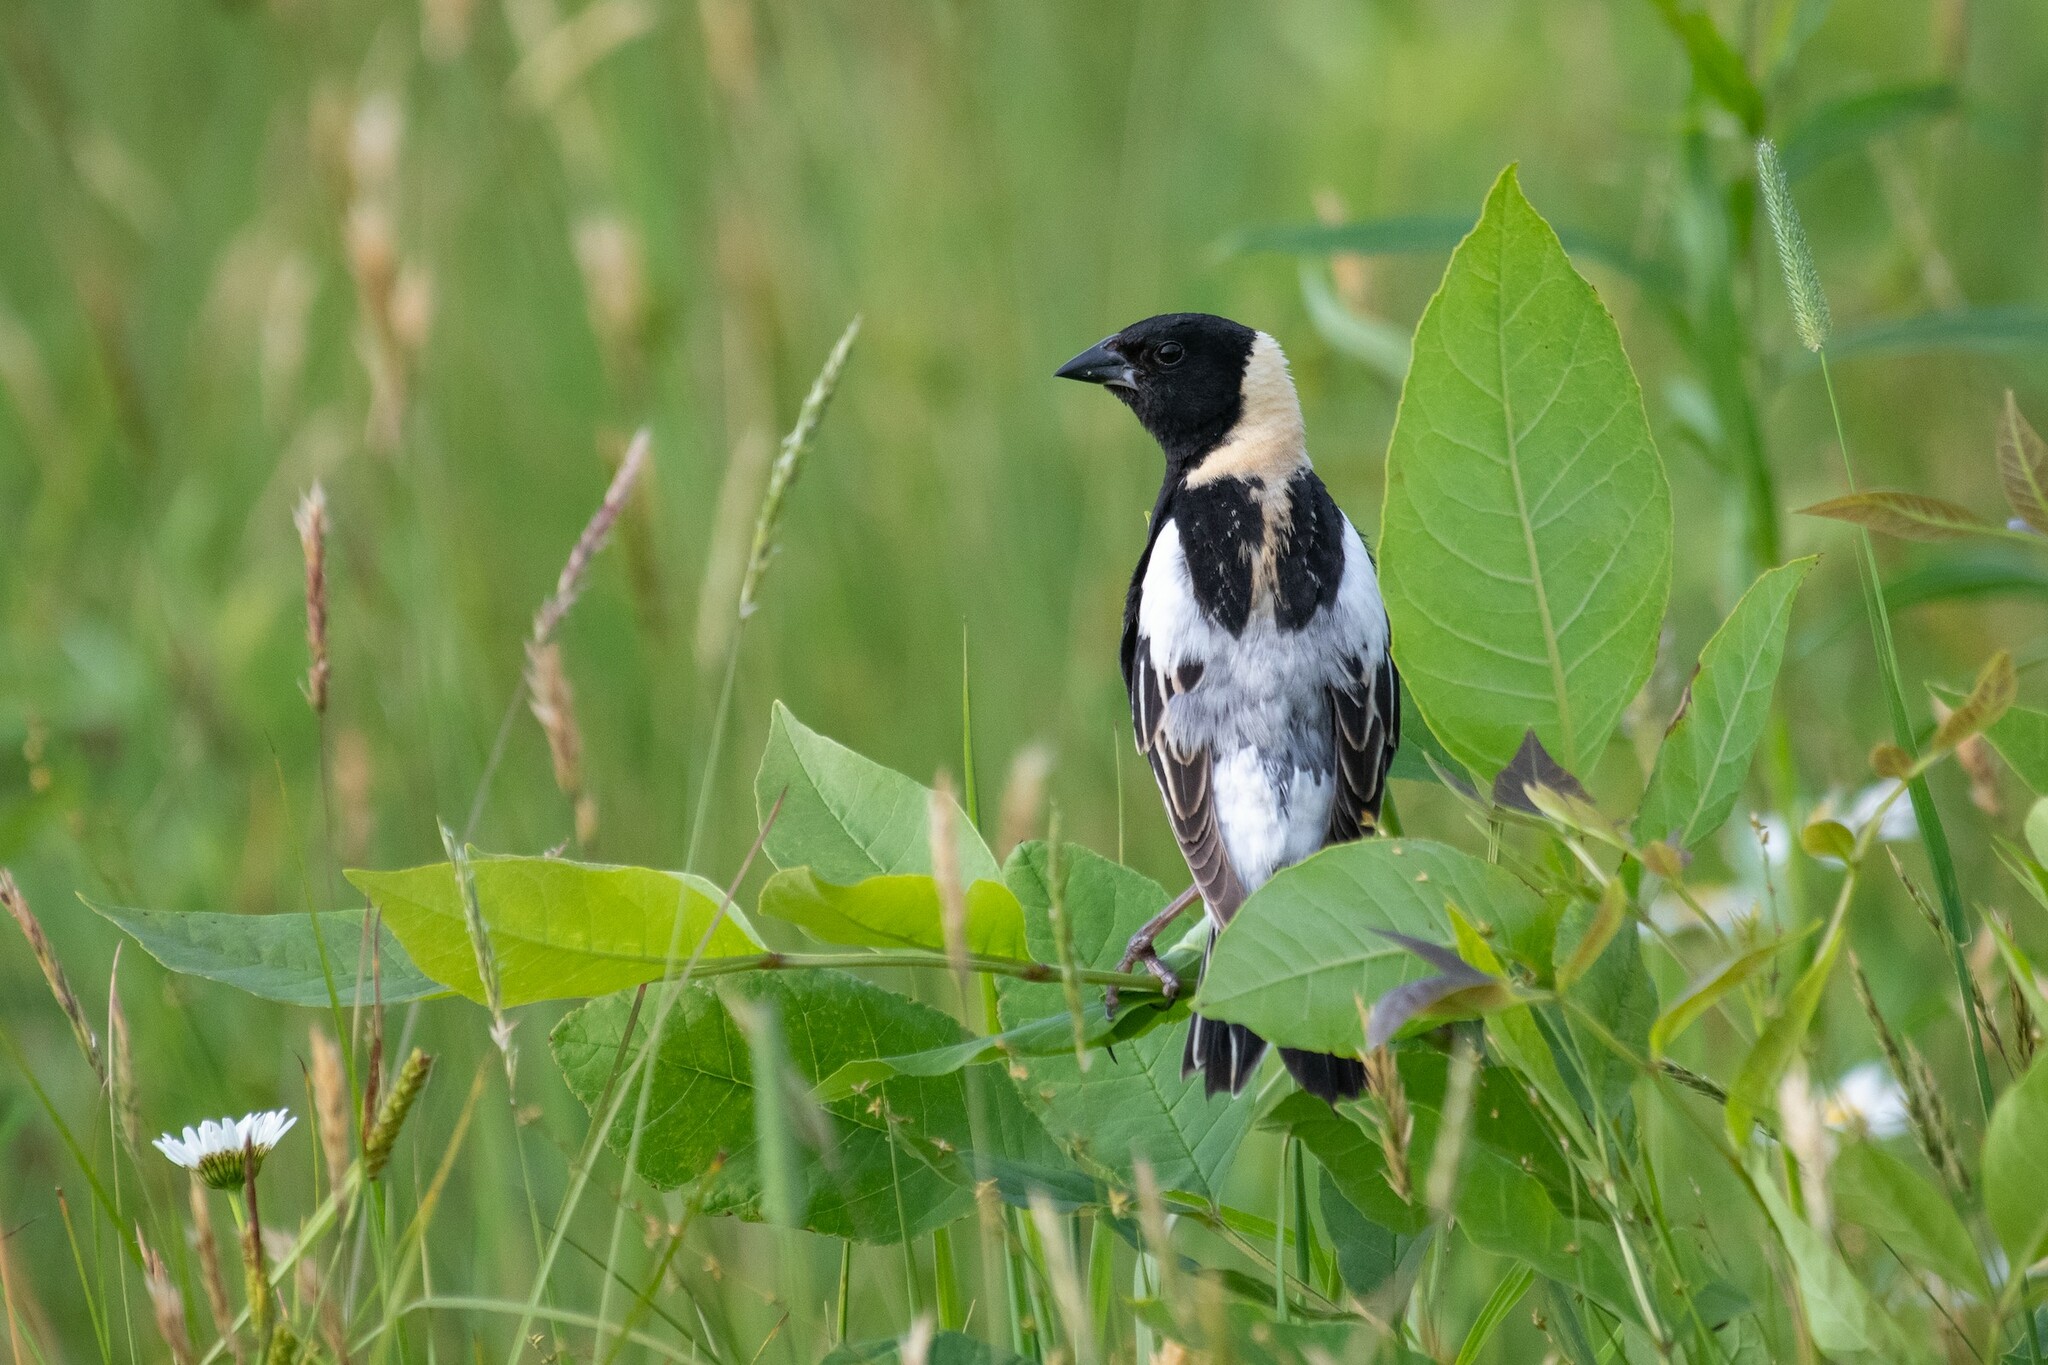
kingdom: Animalia
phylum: Chordata
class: Aves
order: Passeriformes
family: Icteridae
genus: Dolichonyx
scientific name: Dolichonyx oryzivorus
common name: Bobolink
